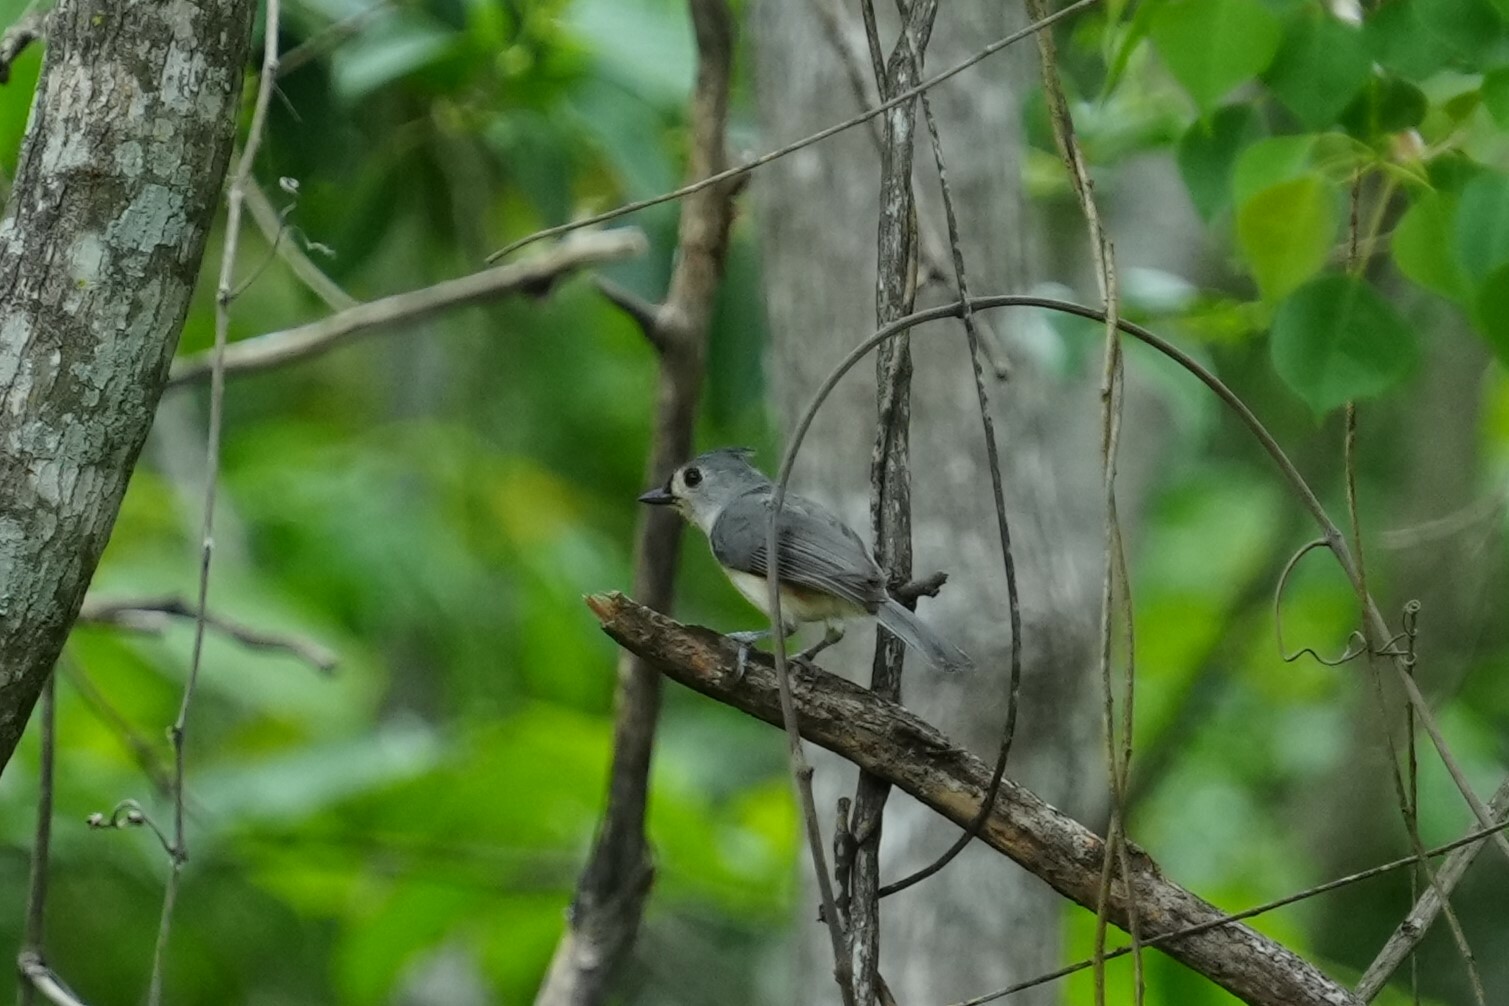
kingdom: Animalia
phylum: Chordata
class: Aves
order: Passeriformes
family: Paridae
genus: Baeolophus
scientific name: Baeolophus bicolor
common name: Tufted titmouse
